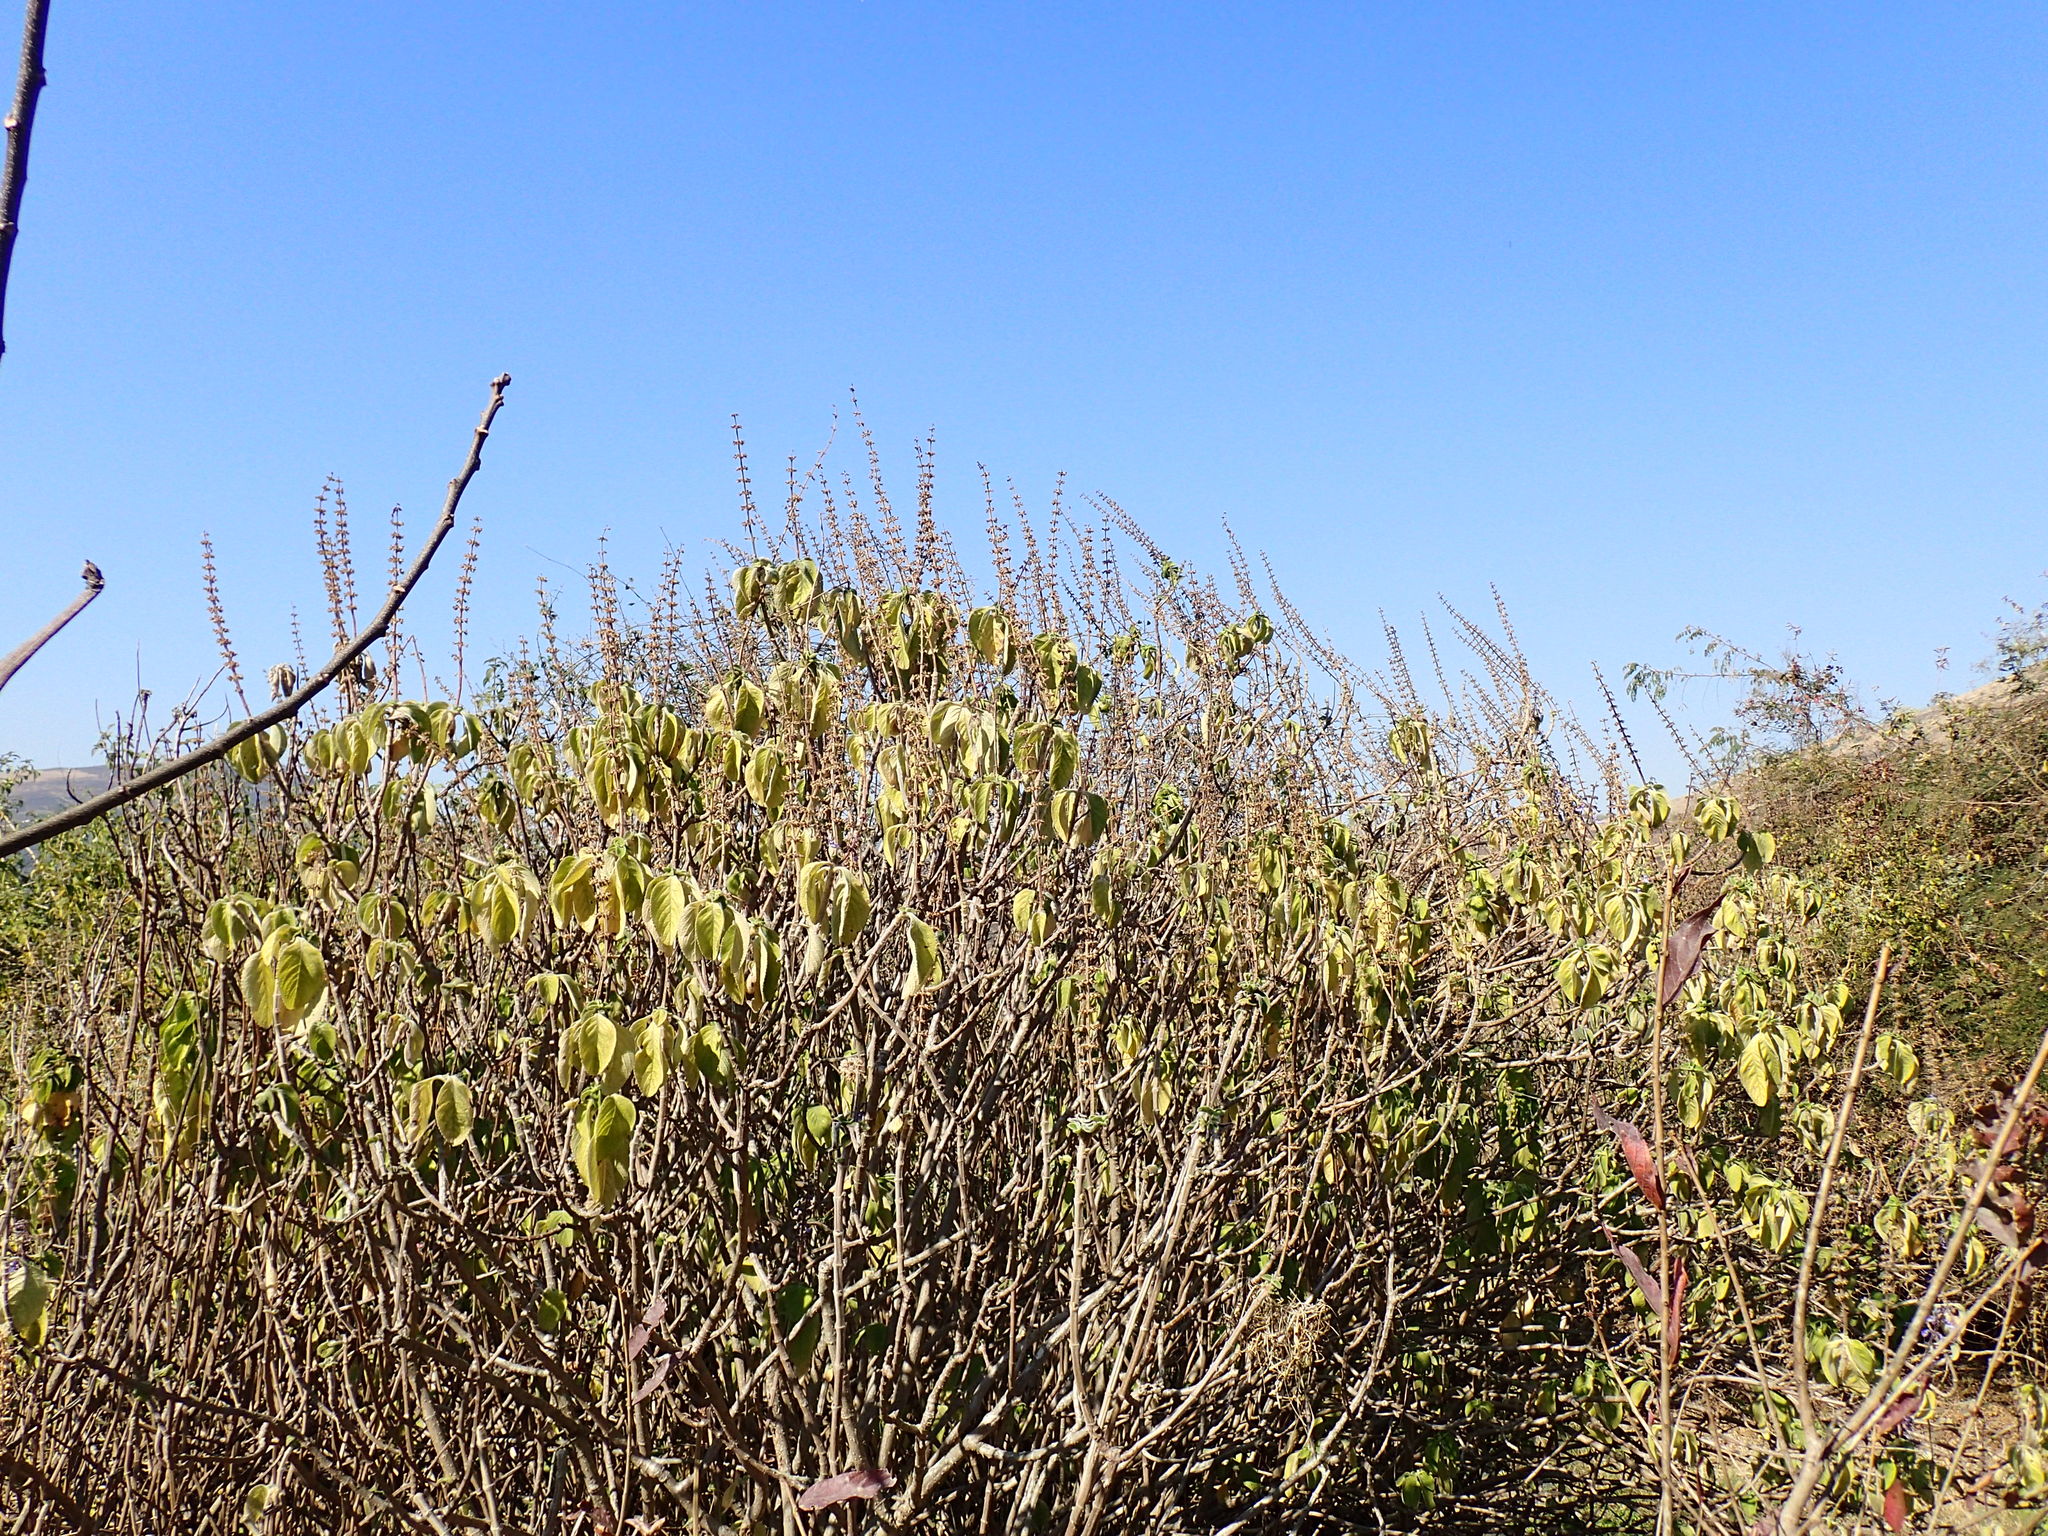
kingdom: Plantae
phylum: Tracheophyta
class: Magnoliopsida
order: Lamiales
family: Lamiaceae
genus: Coleus
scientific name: Coleus barbatus
